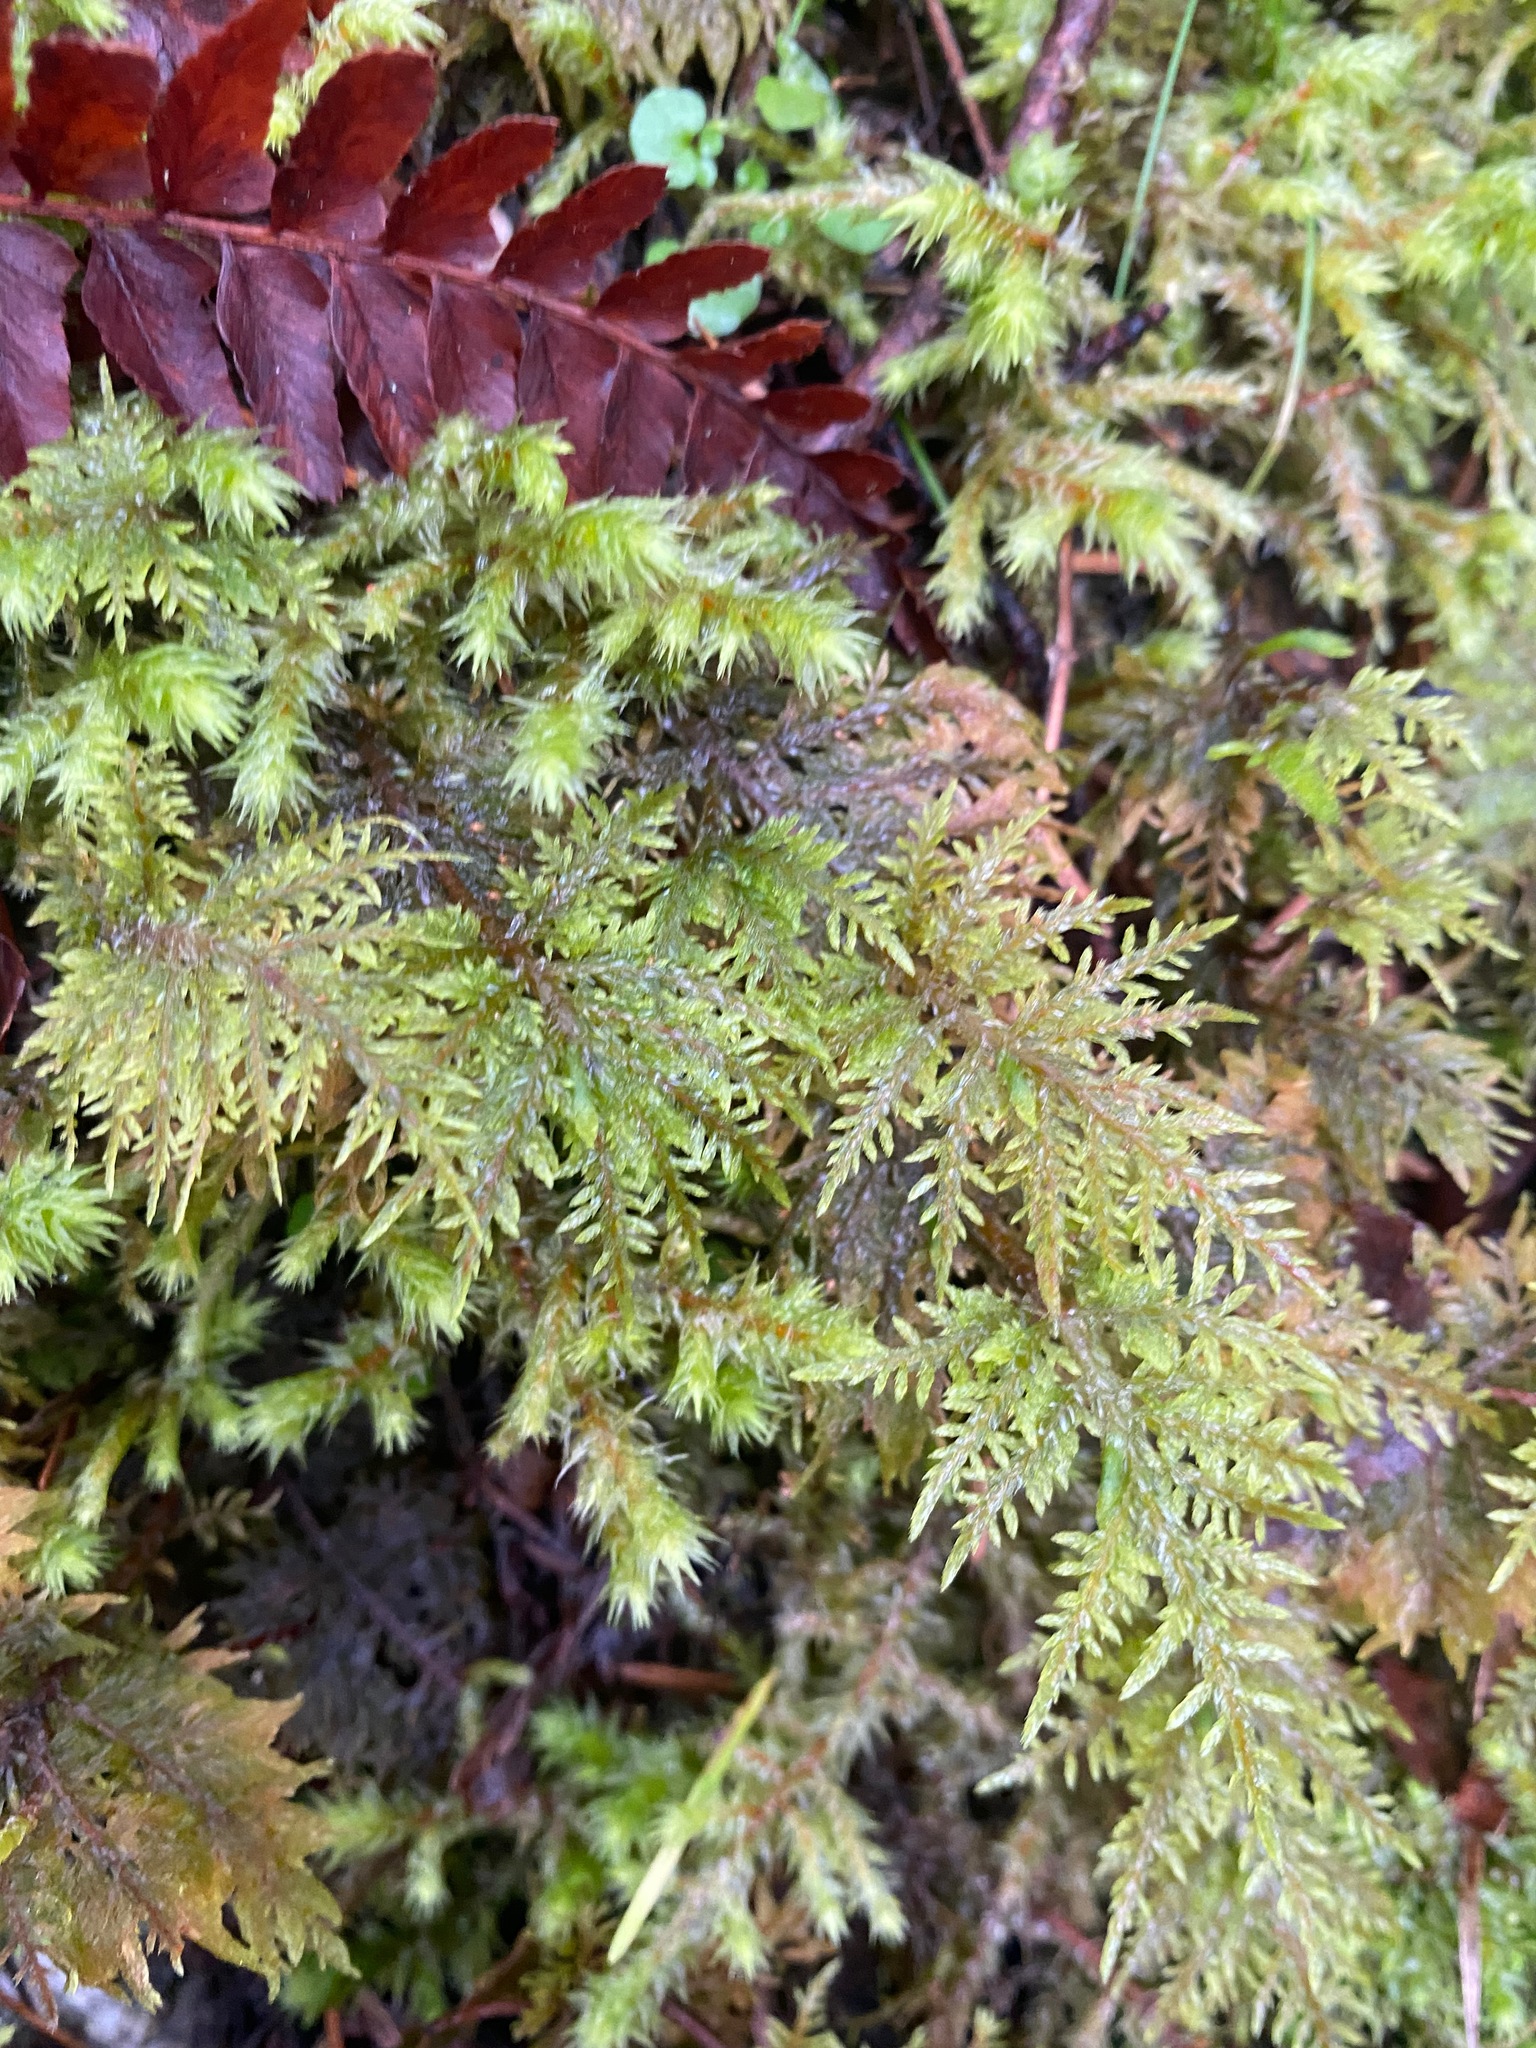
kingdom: Plantae
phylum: Bryophyta
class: Bryopsida
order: Hypnales
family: Hylocomiaceae
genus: Hylocomium
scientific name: Hylocomium splendens
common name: Stairstep moss
